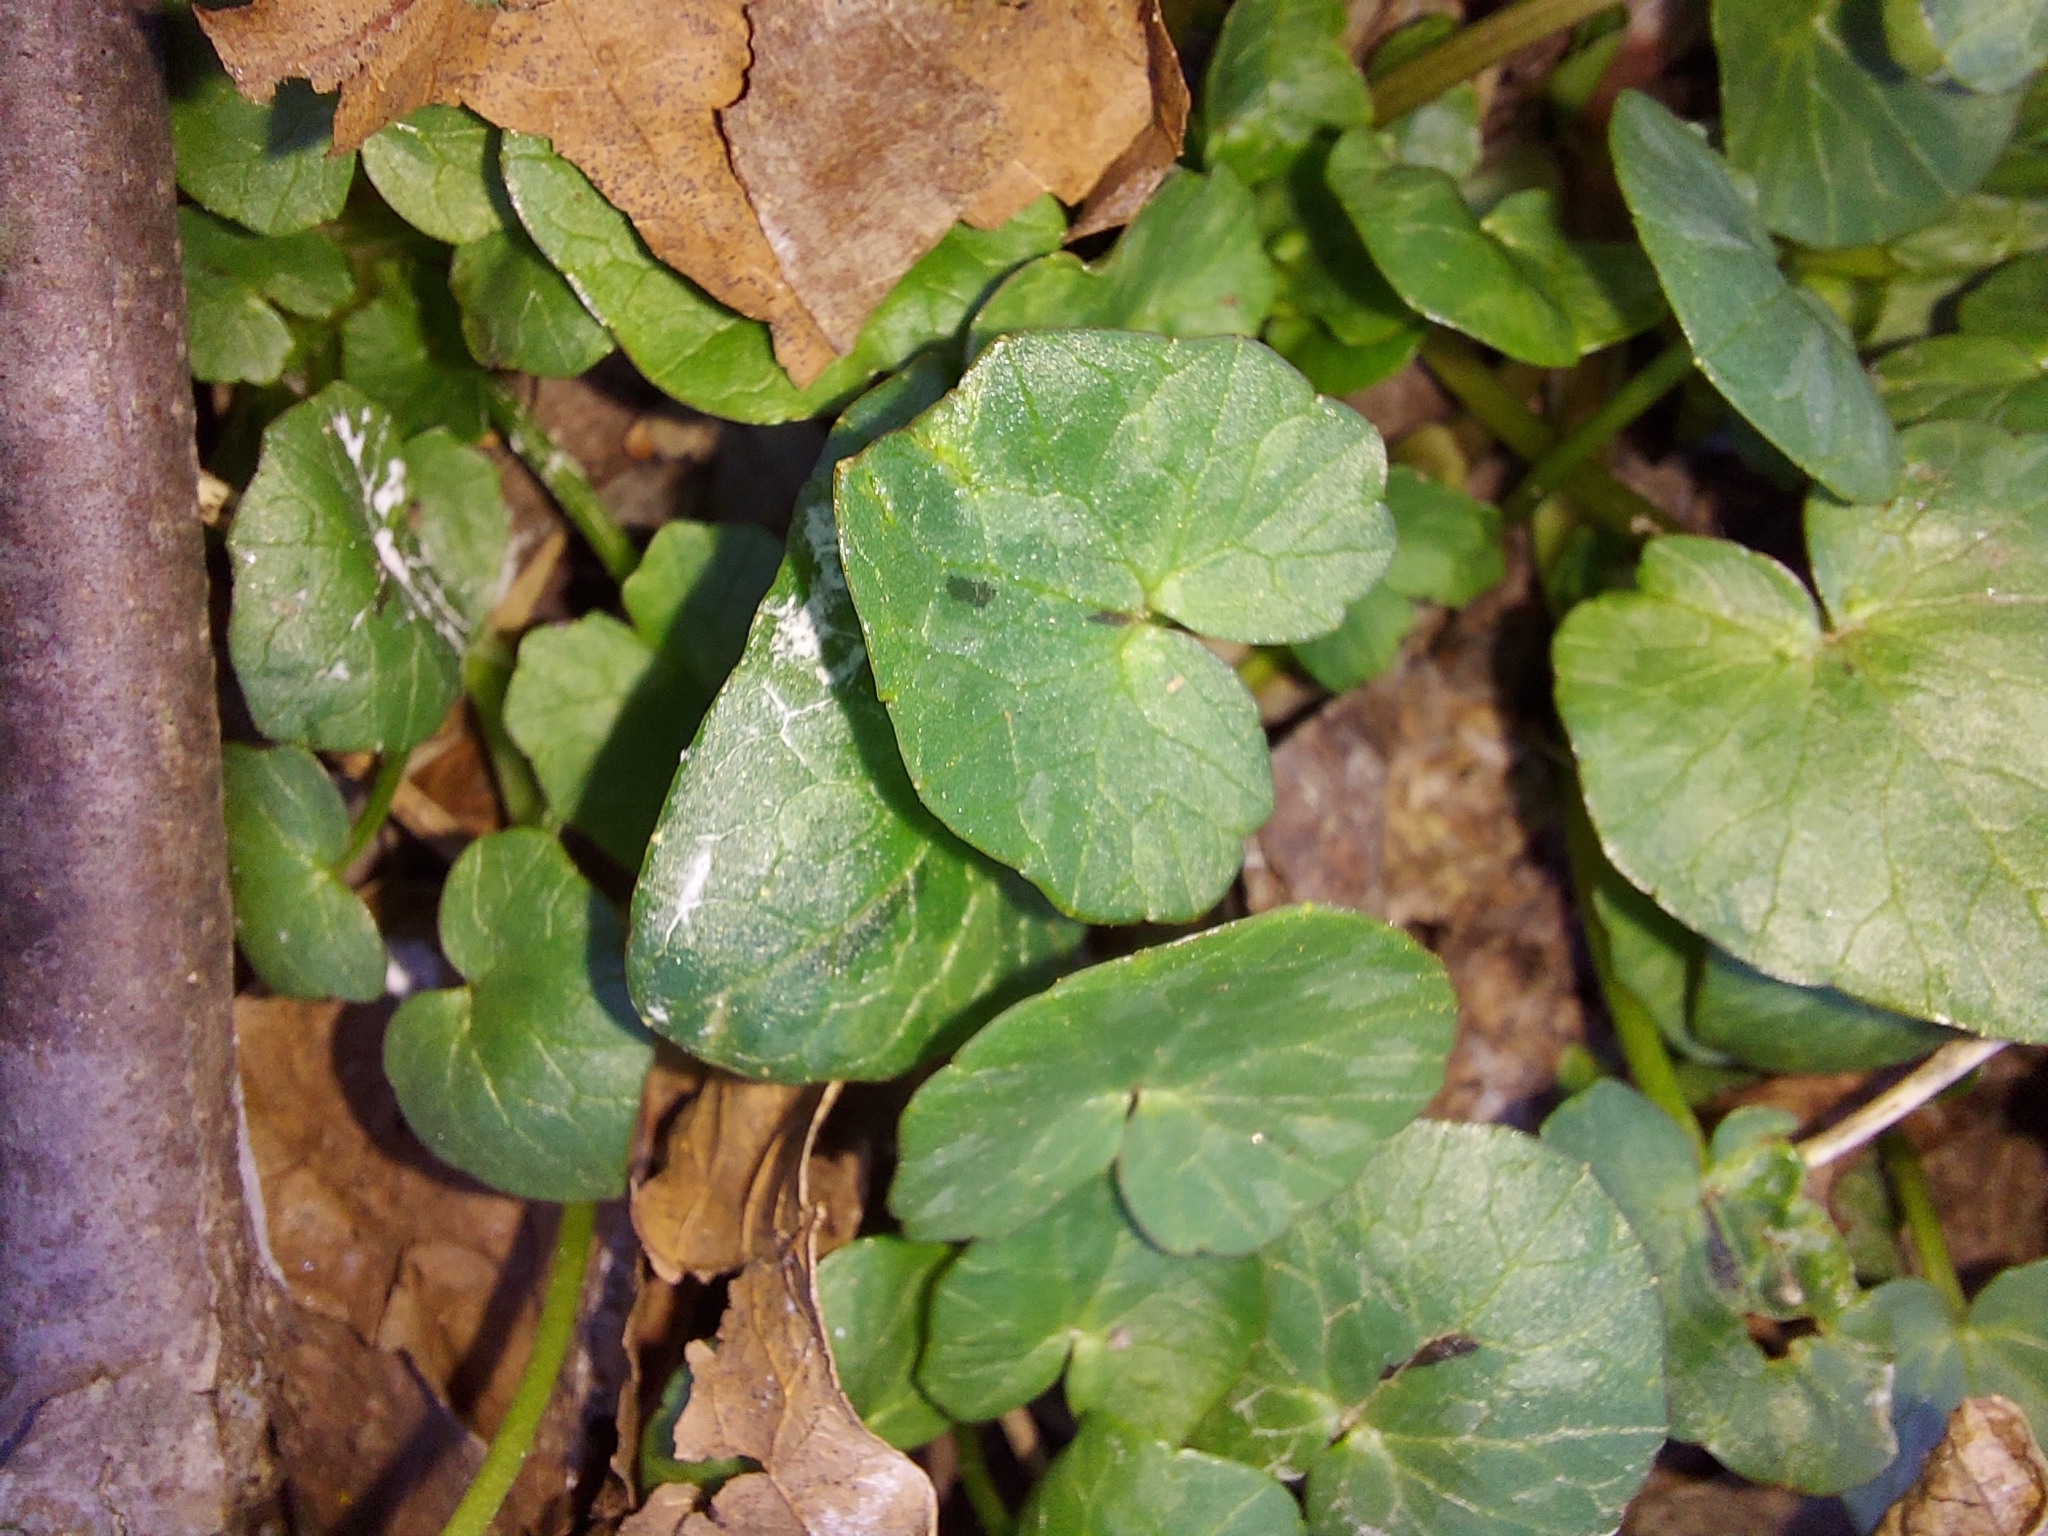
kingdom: Plantae
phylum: Tracheophyta
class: Magnoliopsida
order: Ranunculales
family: Ranunculaceae
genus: Ficaria
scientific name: Ficaria verna
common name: Lesser celandine
